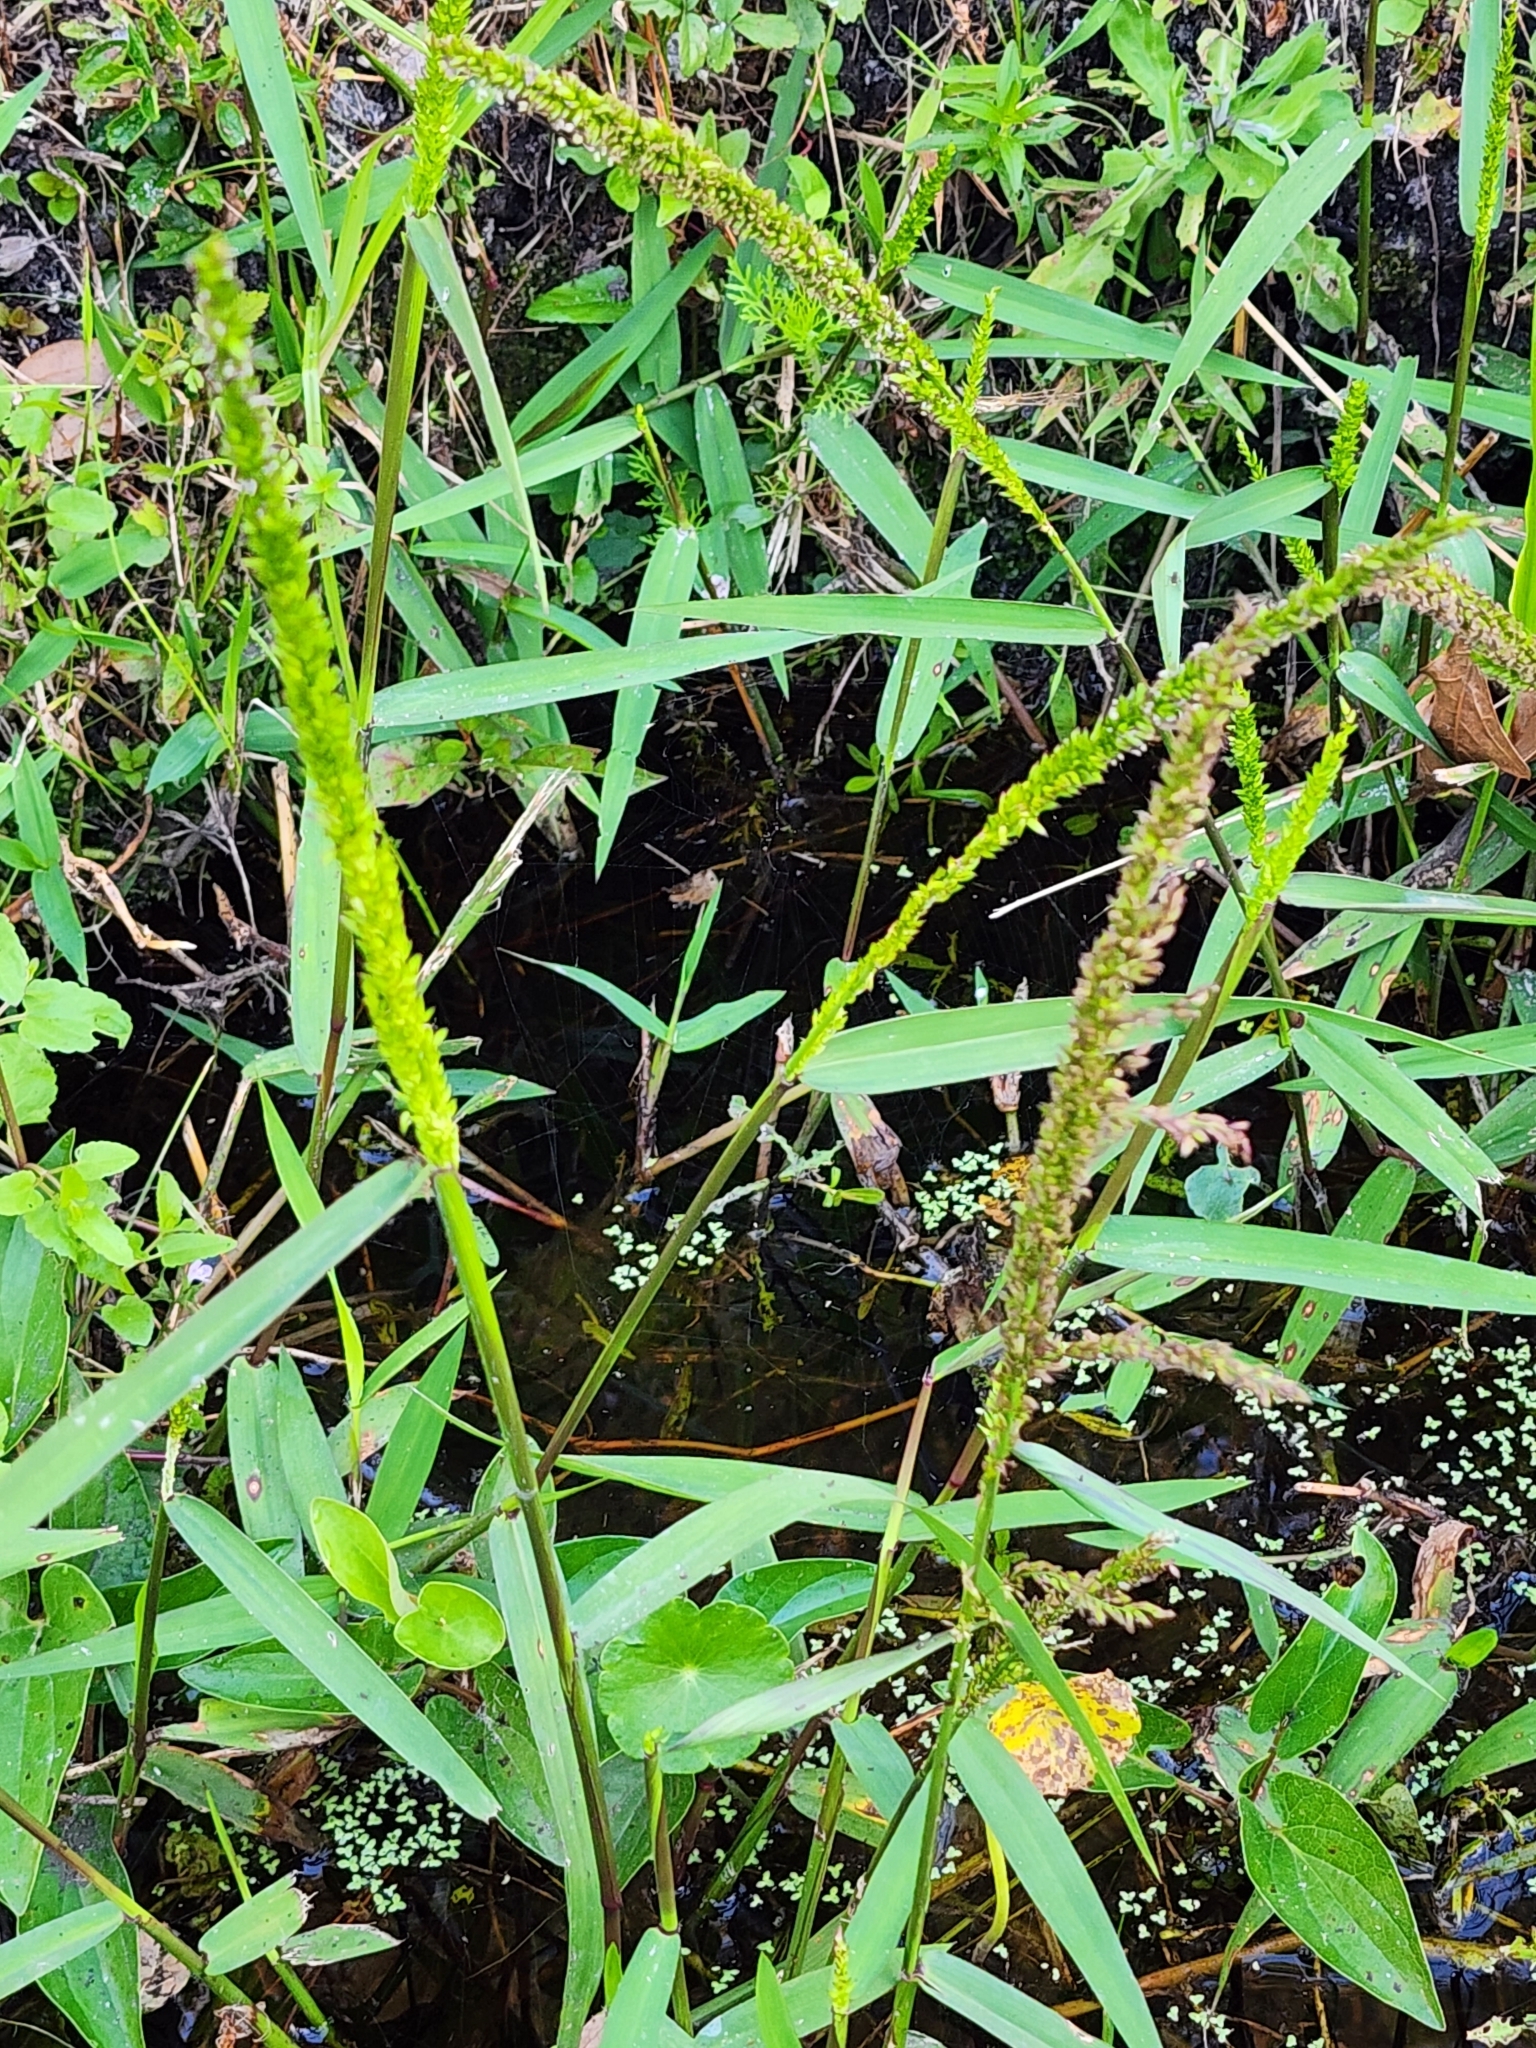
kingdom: Plantae
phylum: Tracheophyta
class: Liliopsida
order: Poales
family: Poaceae
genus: Sacciolepis
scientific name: Sacciolepis striata
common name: American cupscale
